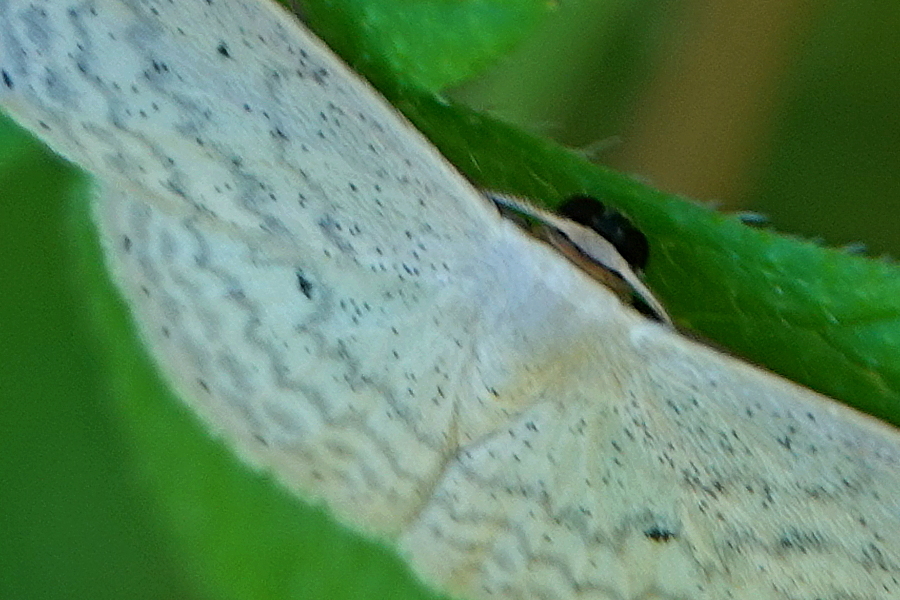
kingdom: Animalia
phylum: Arthropoda
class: Insecta
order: Lepidoptera
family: Geometridae
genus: Scopula
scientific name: Scopula optivata
